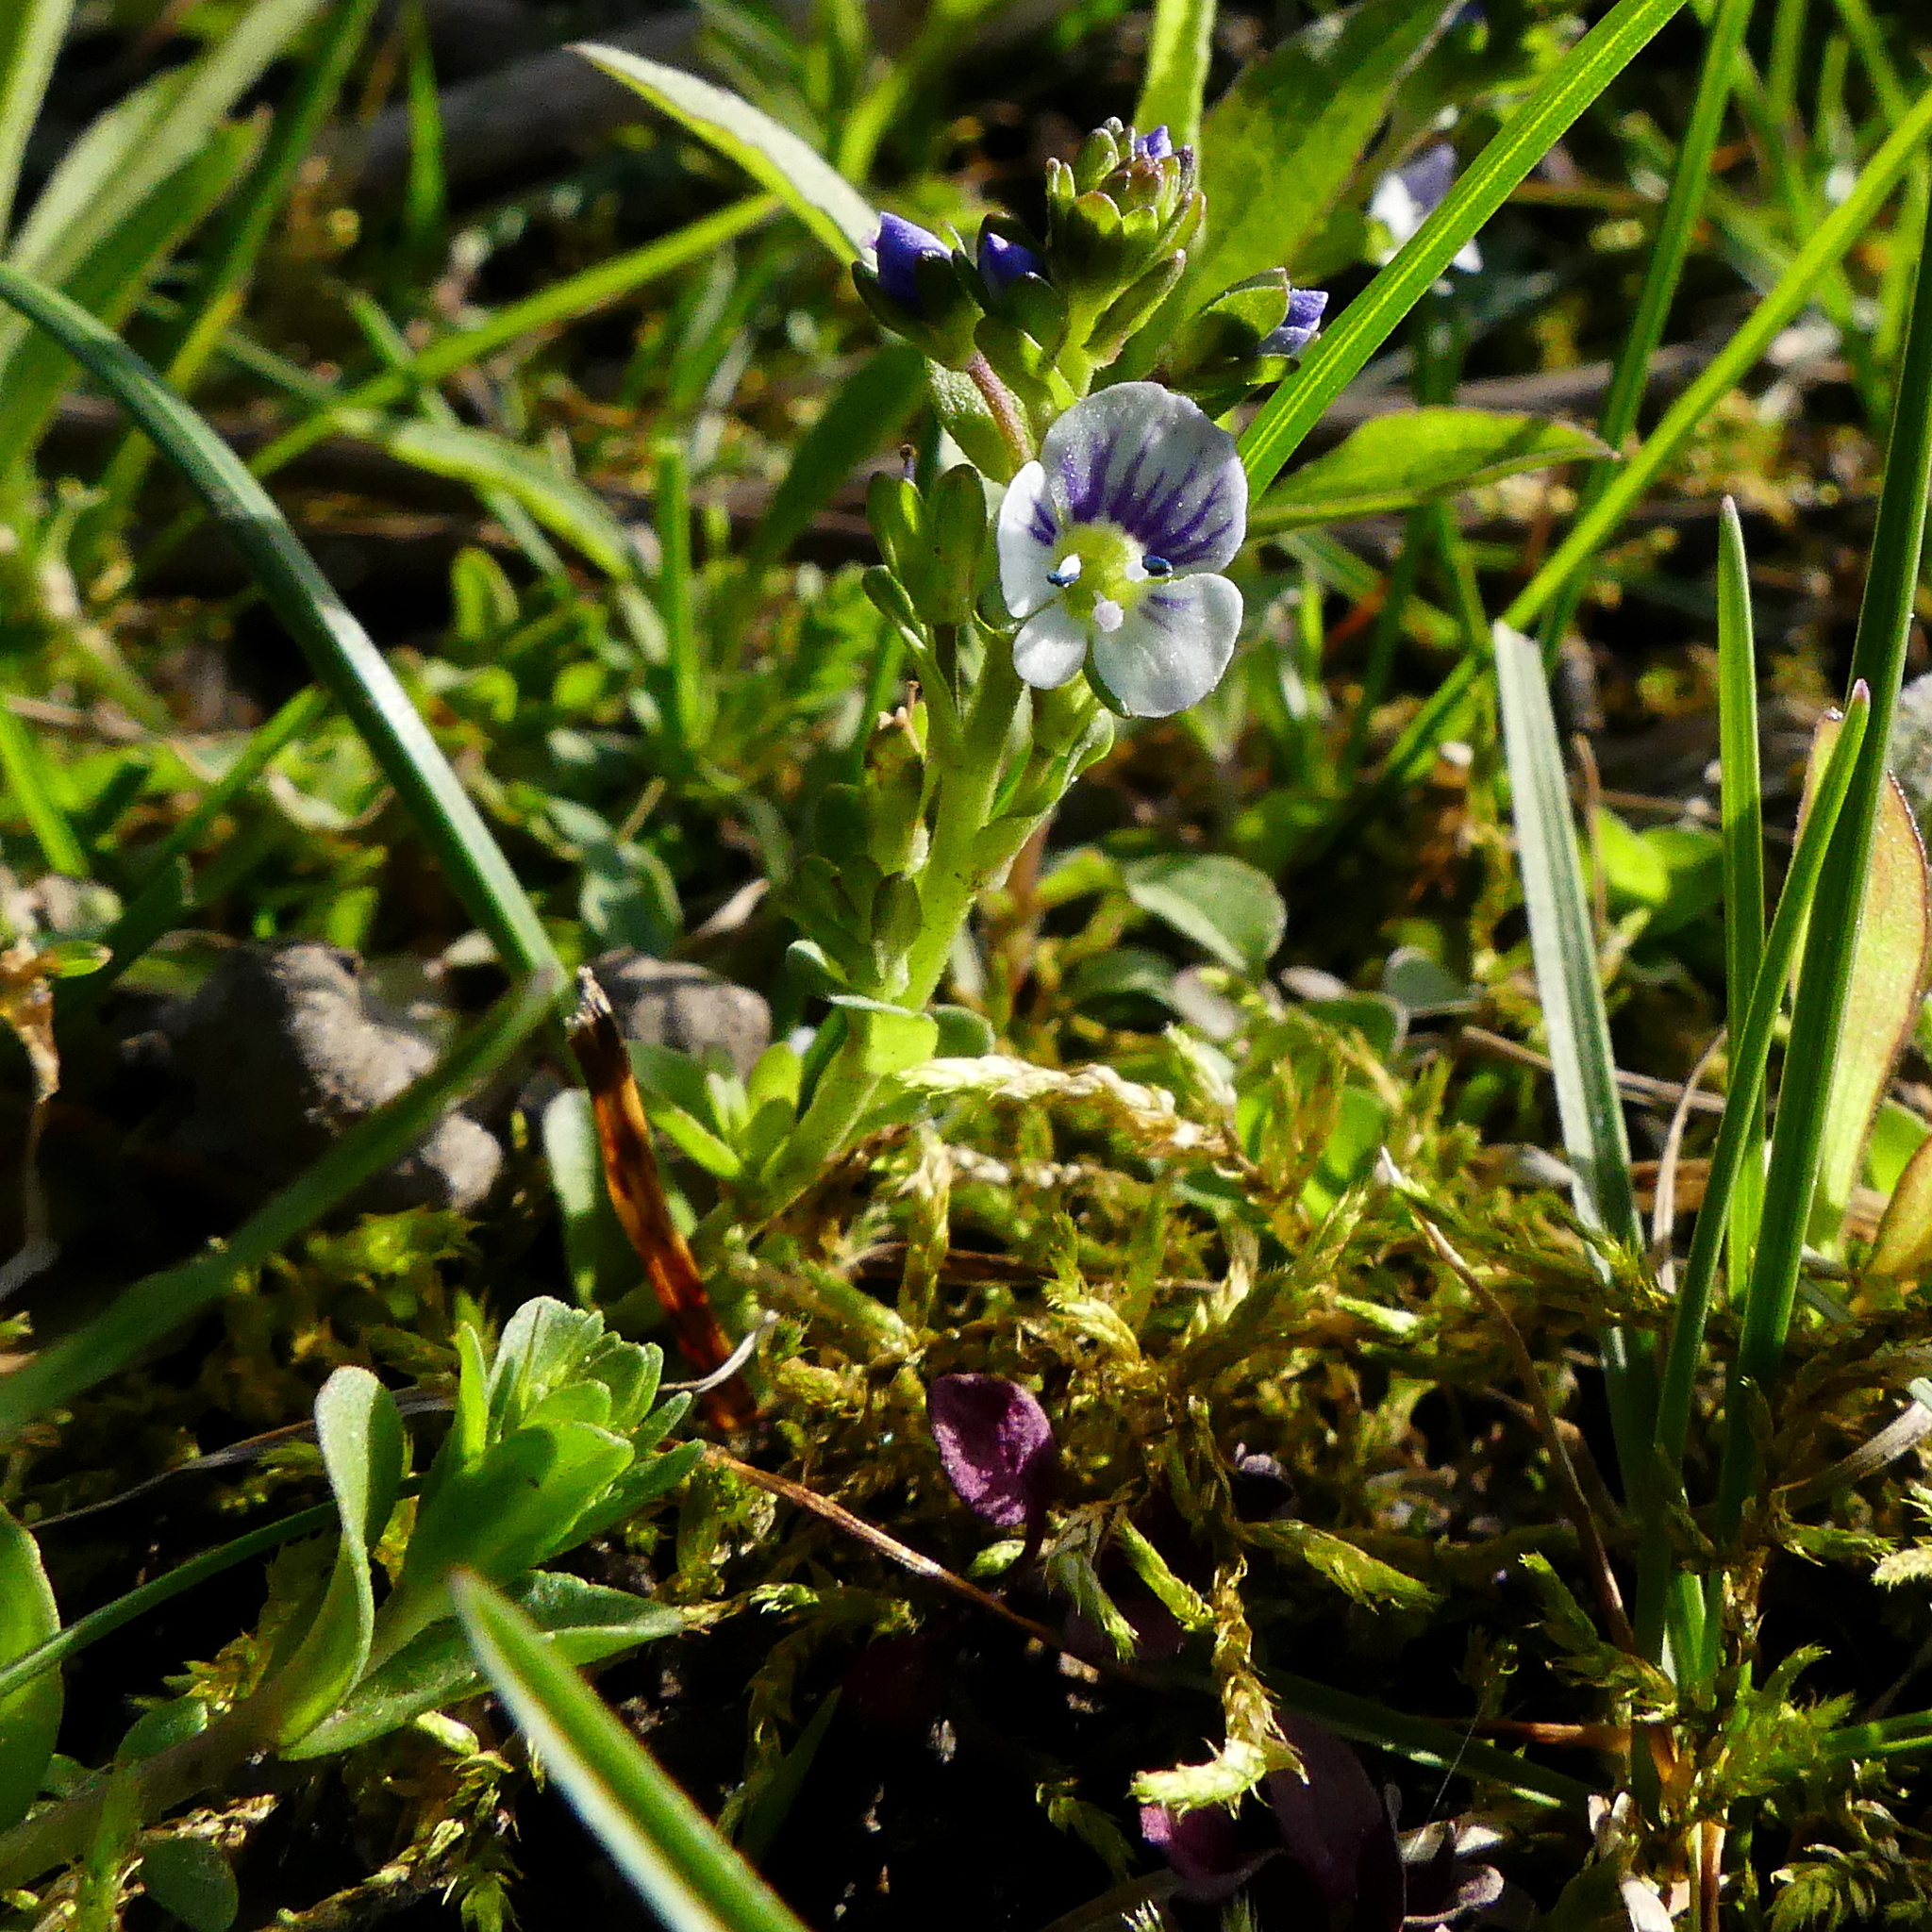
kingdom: Plantae
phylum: Tracheophyta
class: Magnoliopsida
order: Lamiales
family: Plantaginaceae
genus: Veronica
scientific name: Veronica serpyllifolia
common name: Thyme-leaved speedwell
